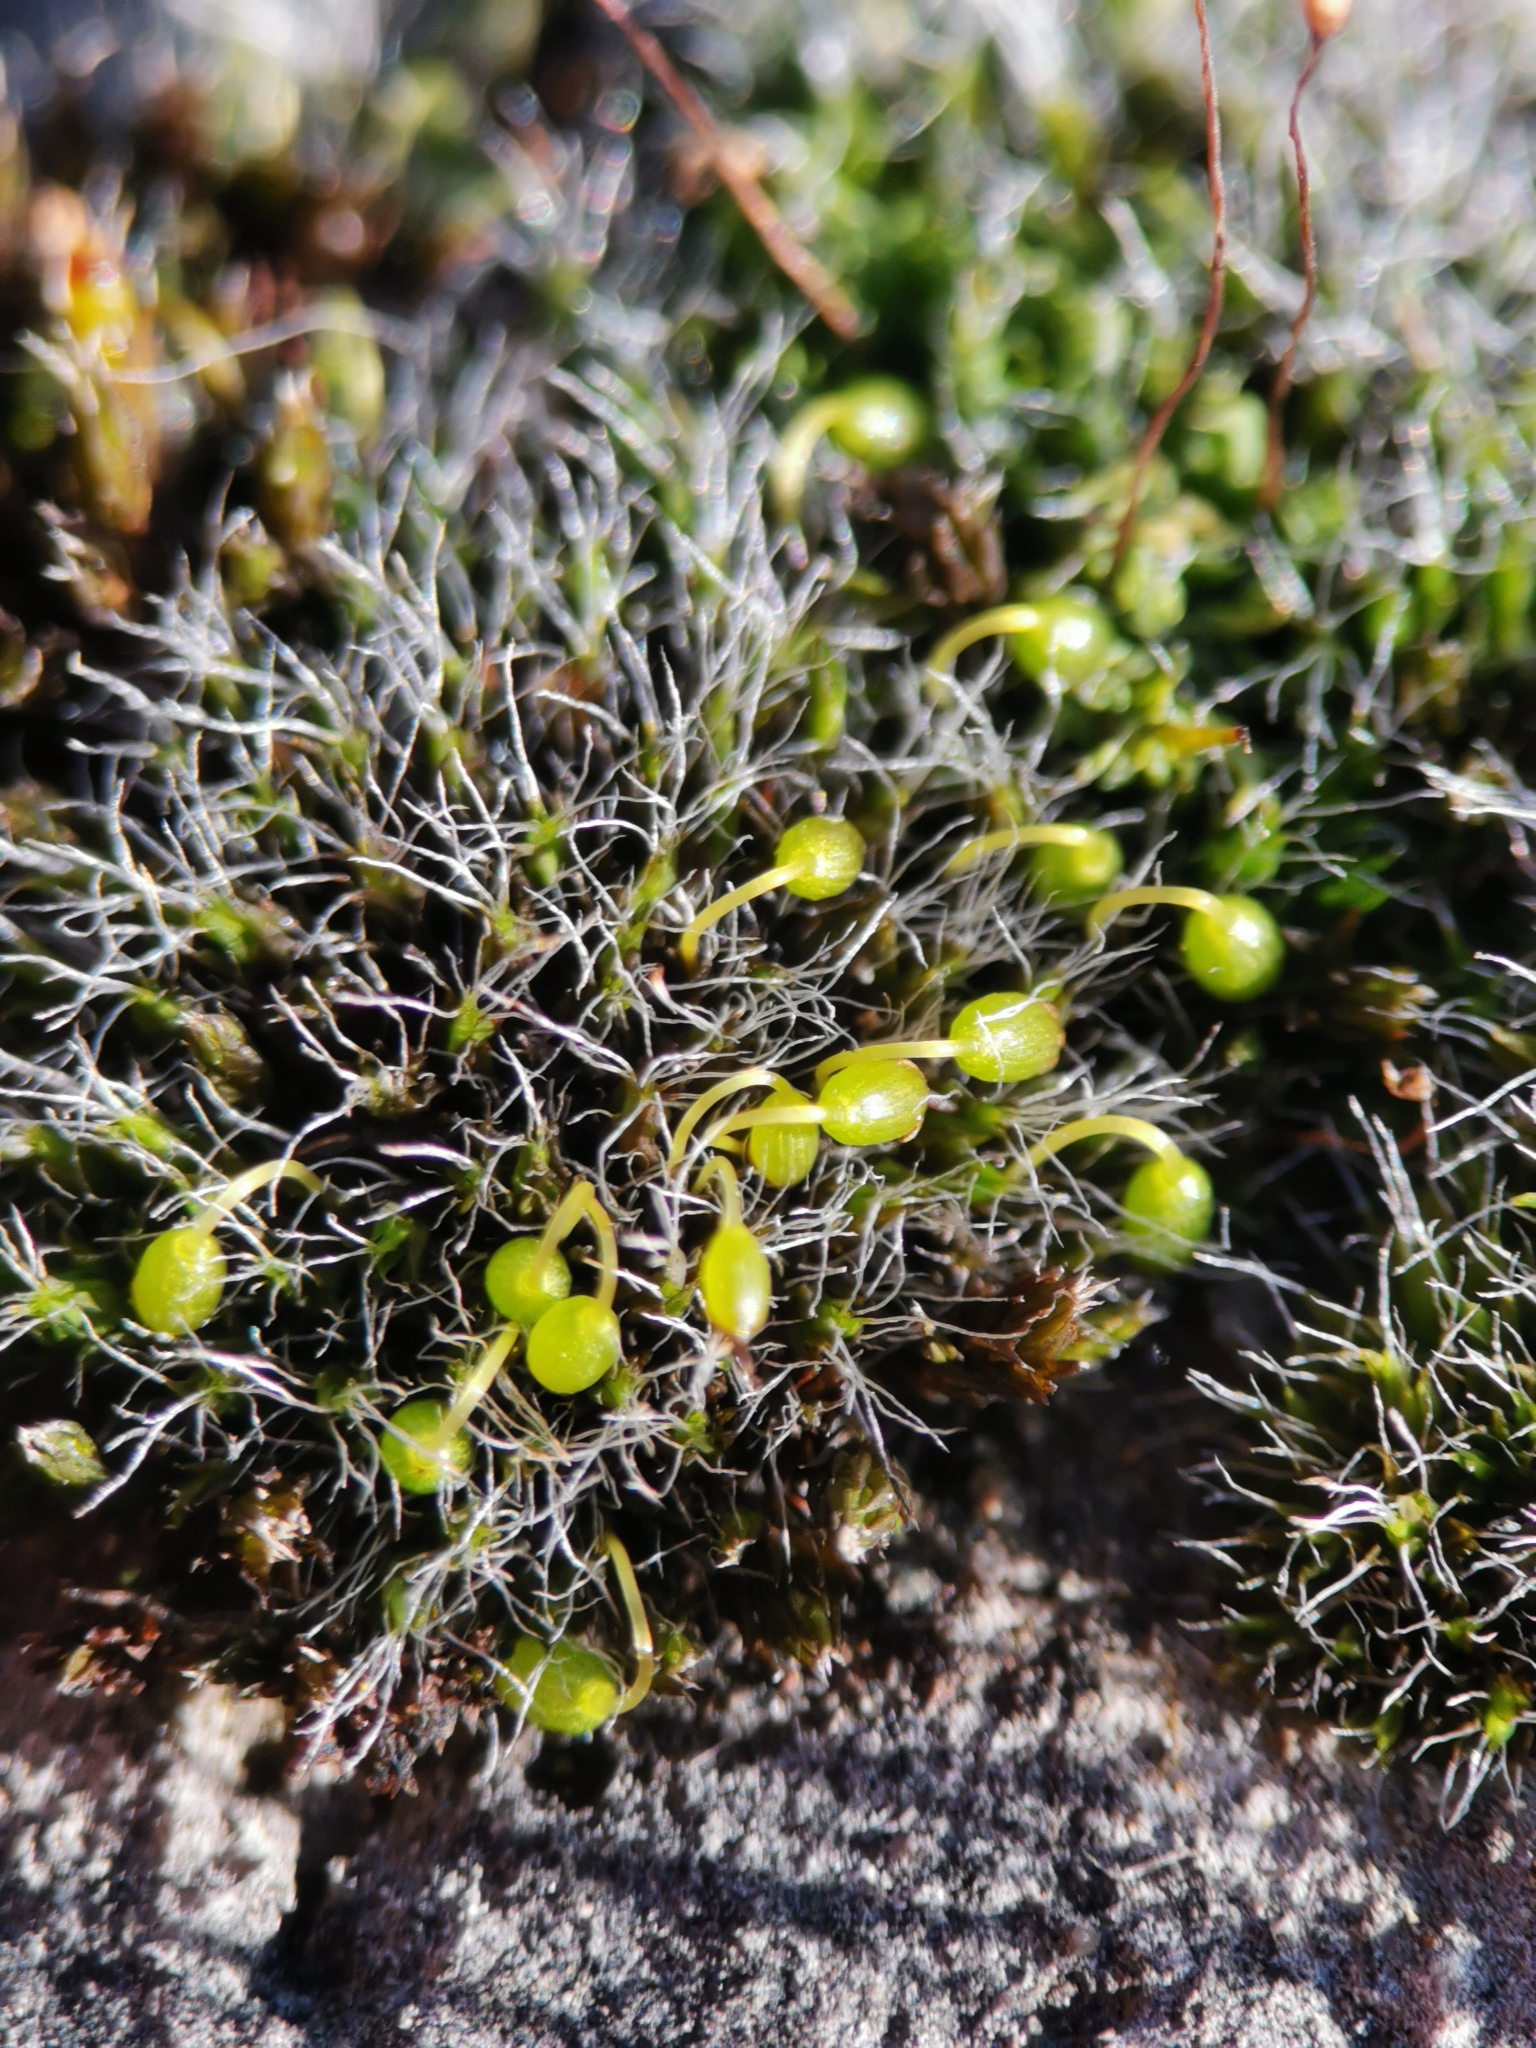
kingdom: Plantae
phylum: Bryophyta
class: Bryopsida
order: Grimmiales
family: Grimmiaceae
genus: Grimmia
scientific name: Grimmia pulvinata
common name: Grey-cushioned grimmia
